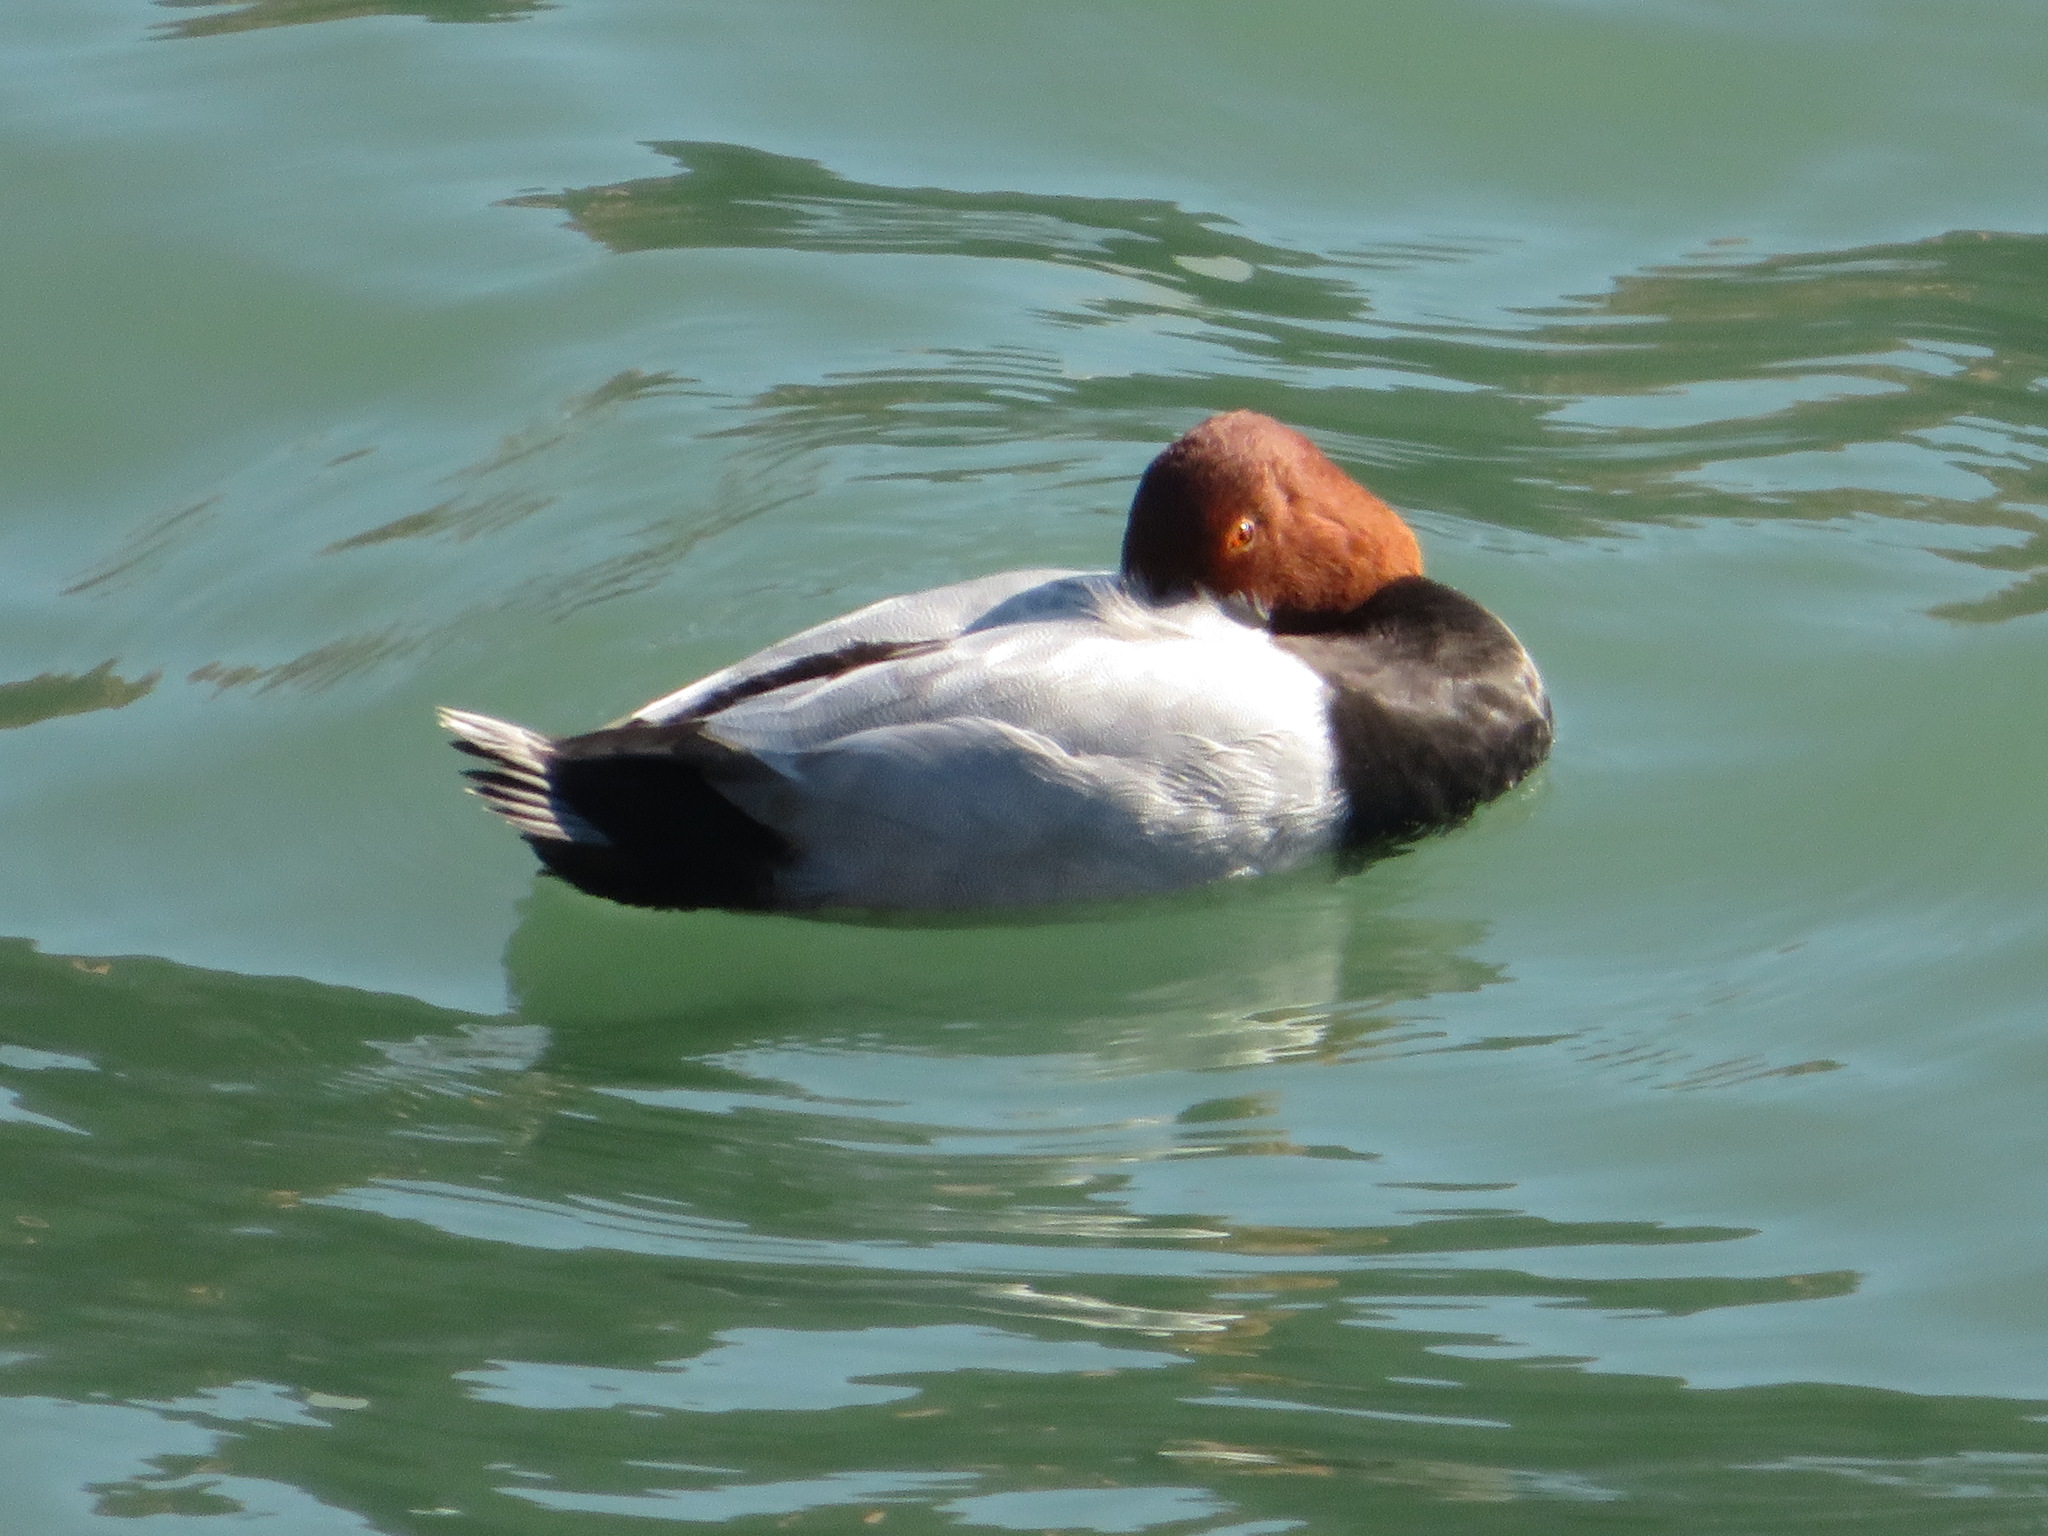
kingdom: Animalia
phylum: Chordata
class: Aves
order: Anseriformes
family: Anatidae
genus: Aythya
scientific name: Aythya ferina
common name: Common pochard
